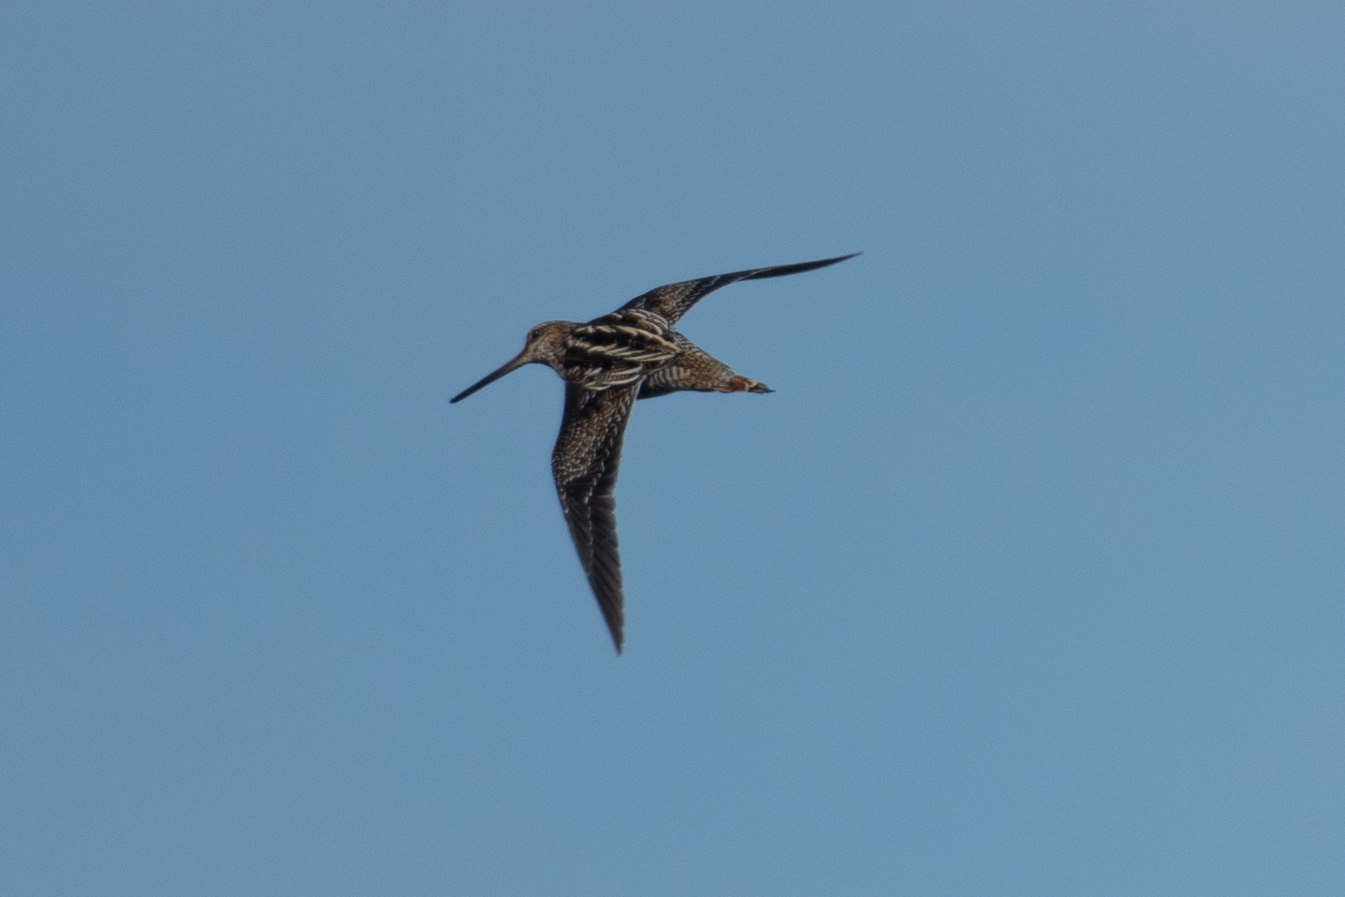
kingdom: Animalia
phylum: Chordata
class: Aves
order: Charadriiformes
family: Scolopacidae
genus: Gallinago
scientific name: Gallinago delicata
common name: Wilson's snipe
